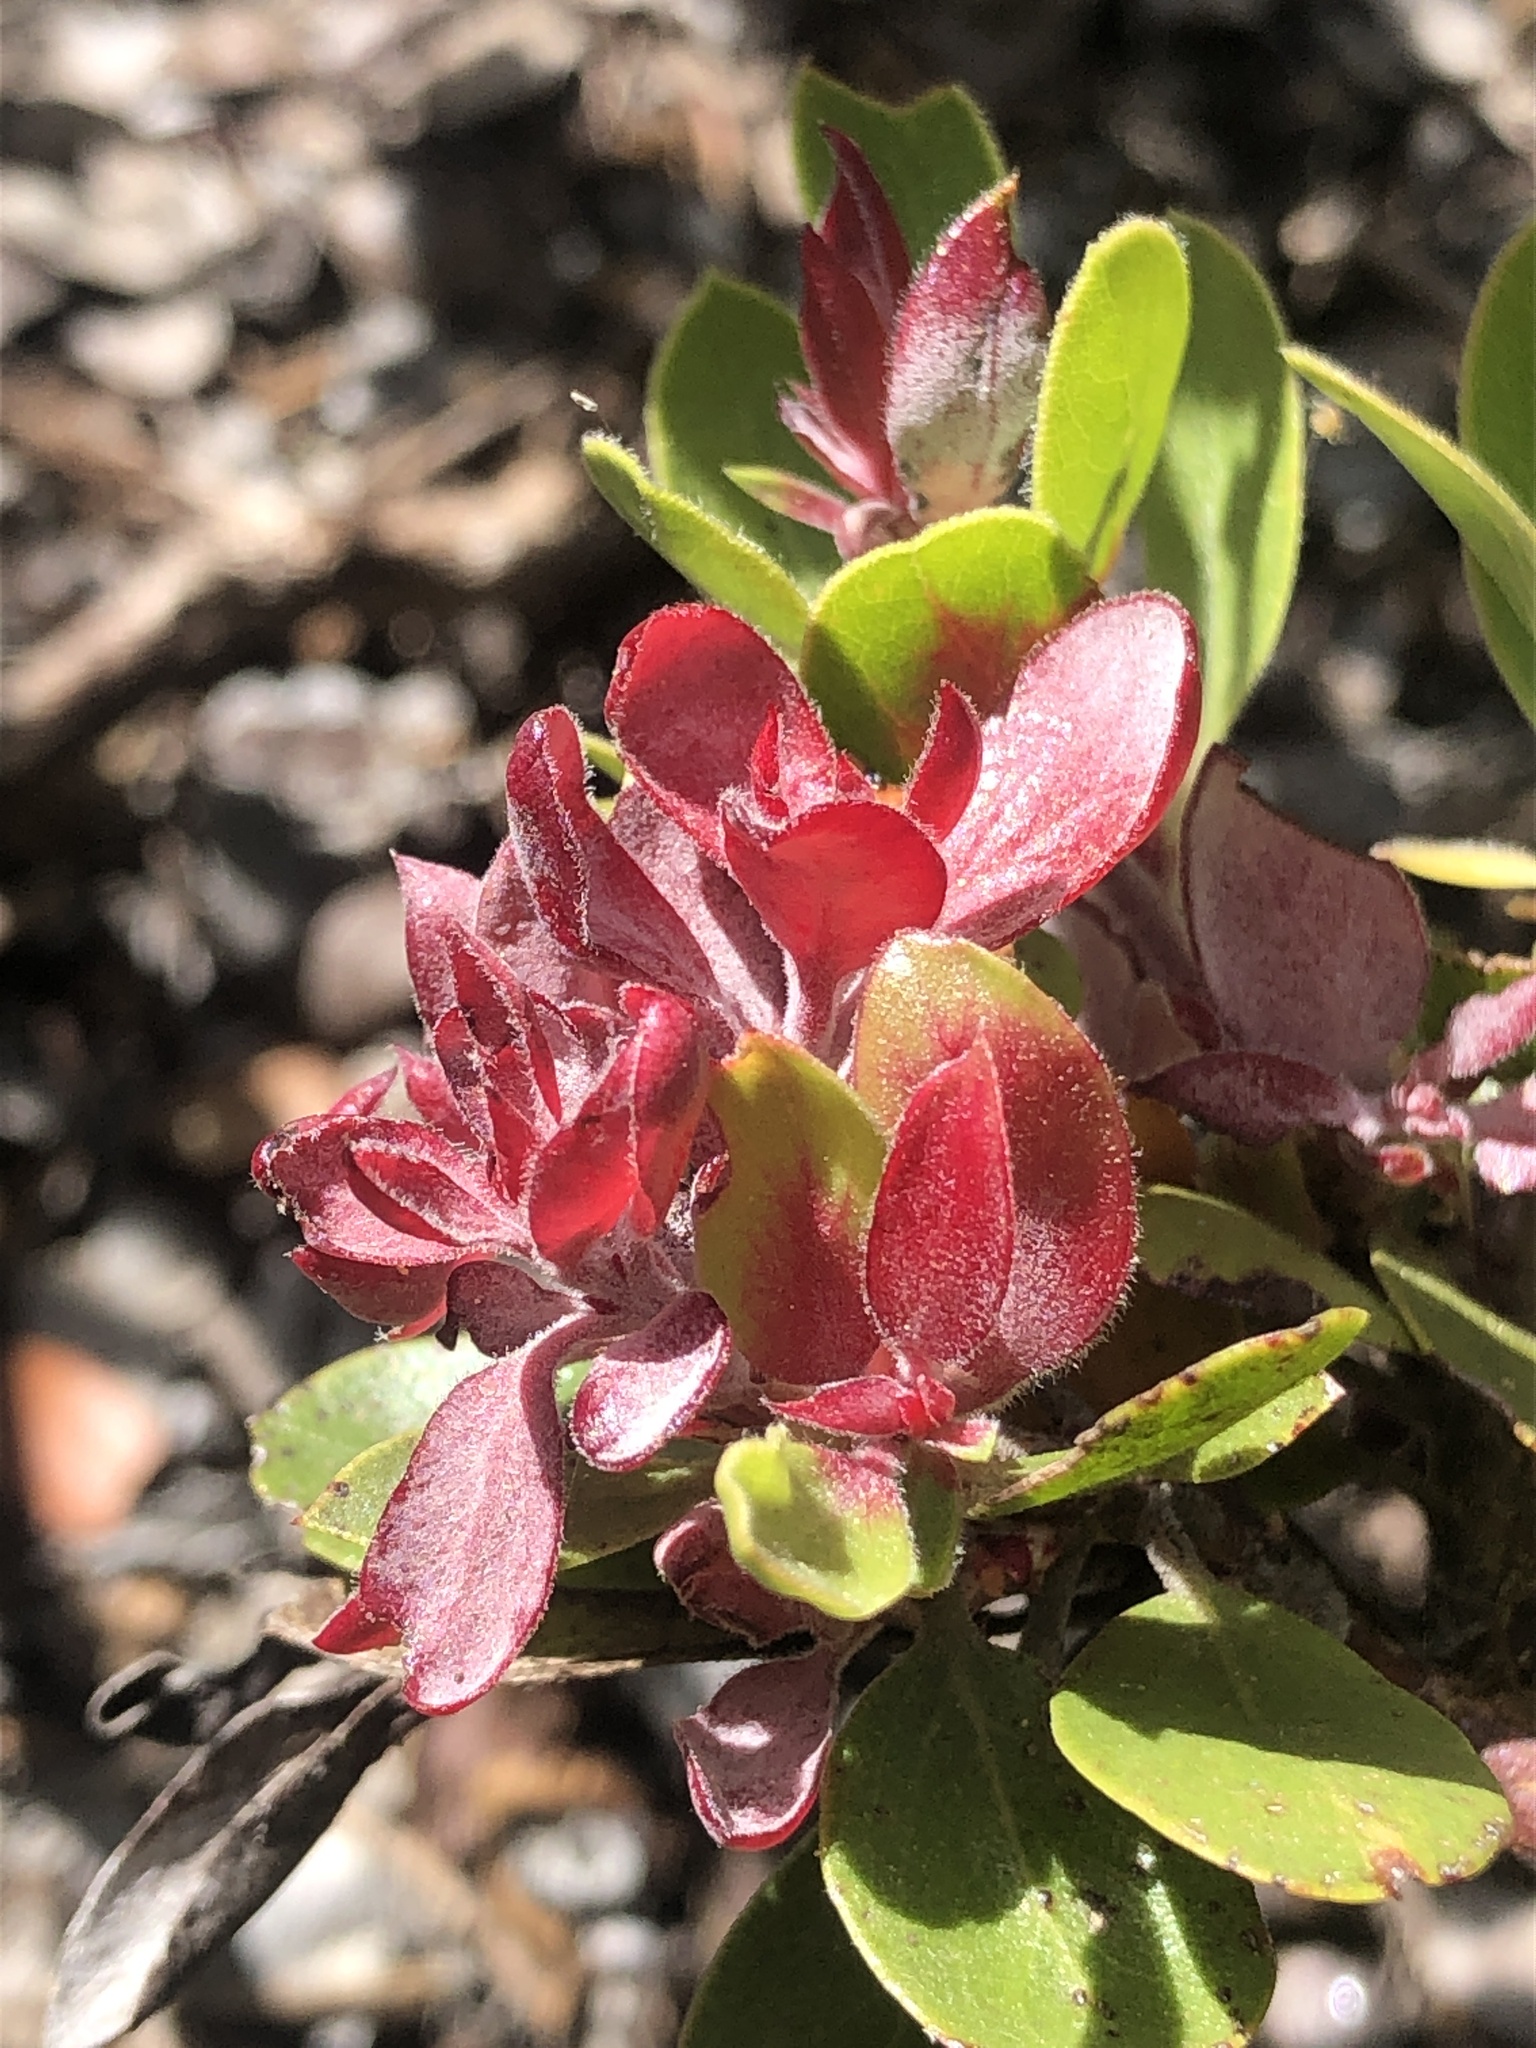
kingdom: Fungi
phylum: Basidiomycota
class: Exobasidiomycetes
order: Exobasidiales
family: Exobasidiaceae
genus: Exobasidium
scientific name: Exobasidium
